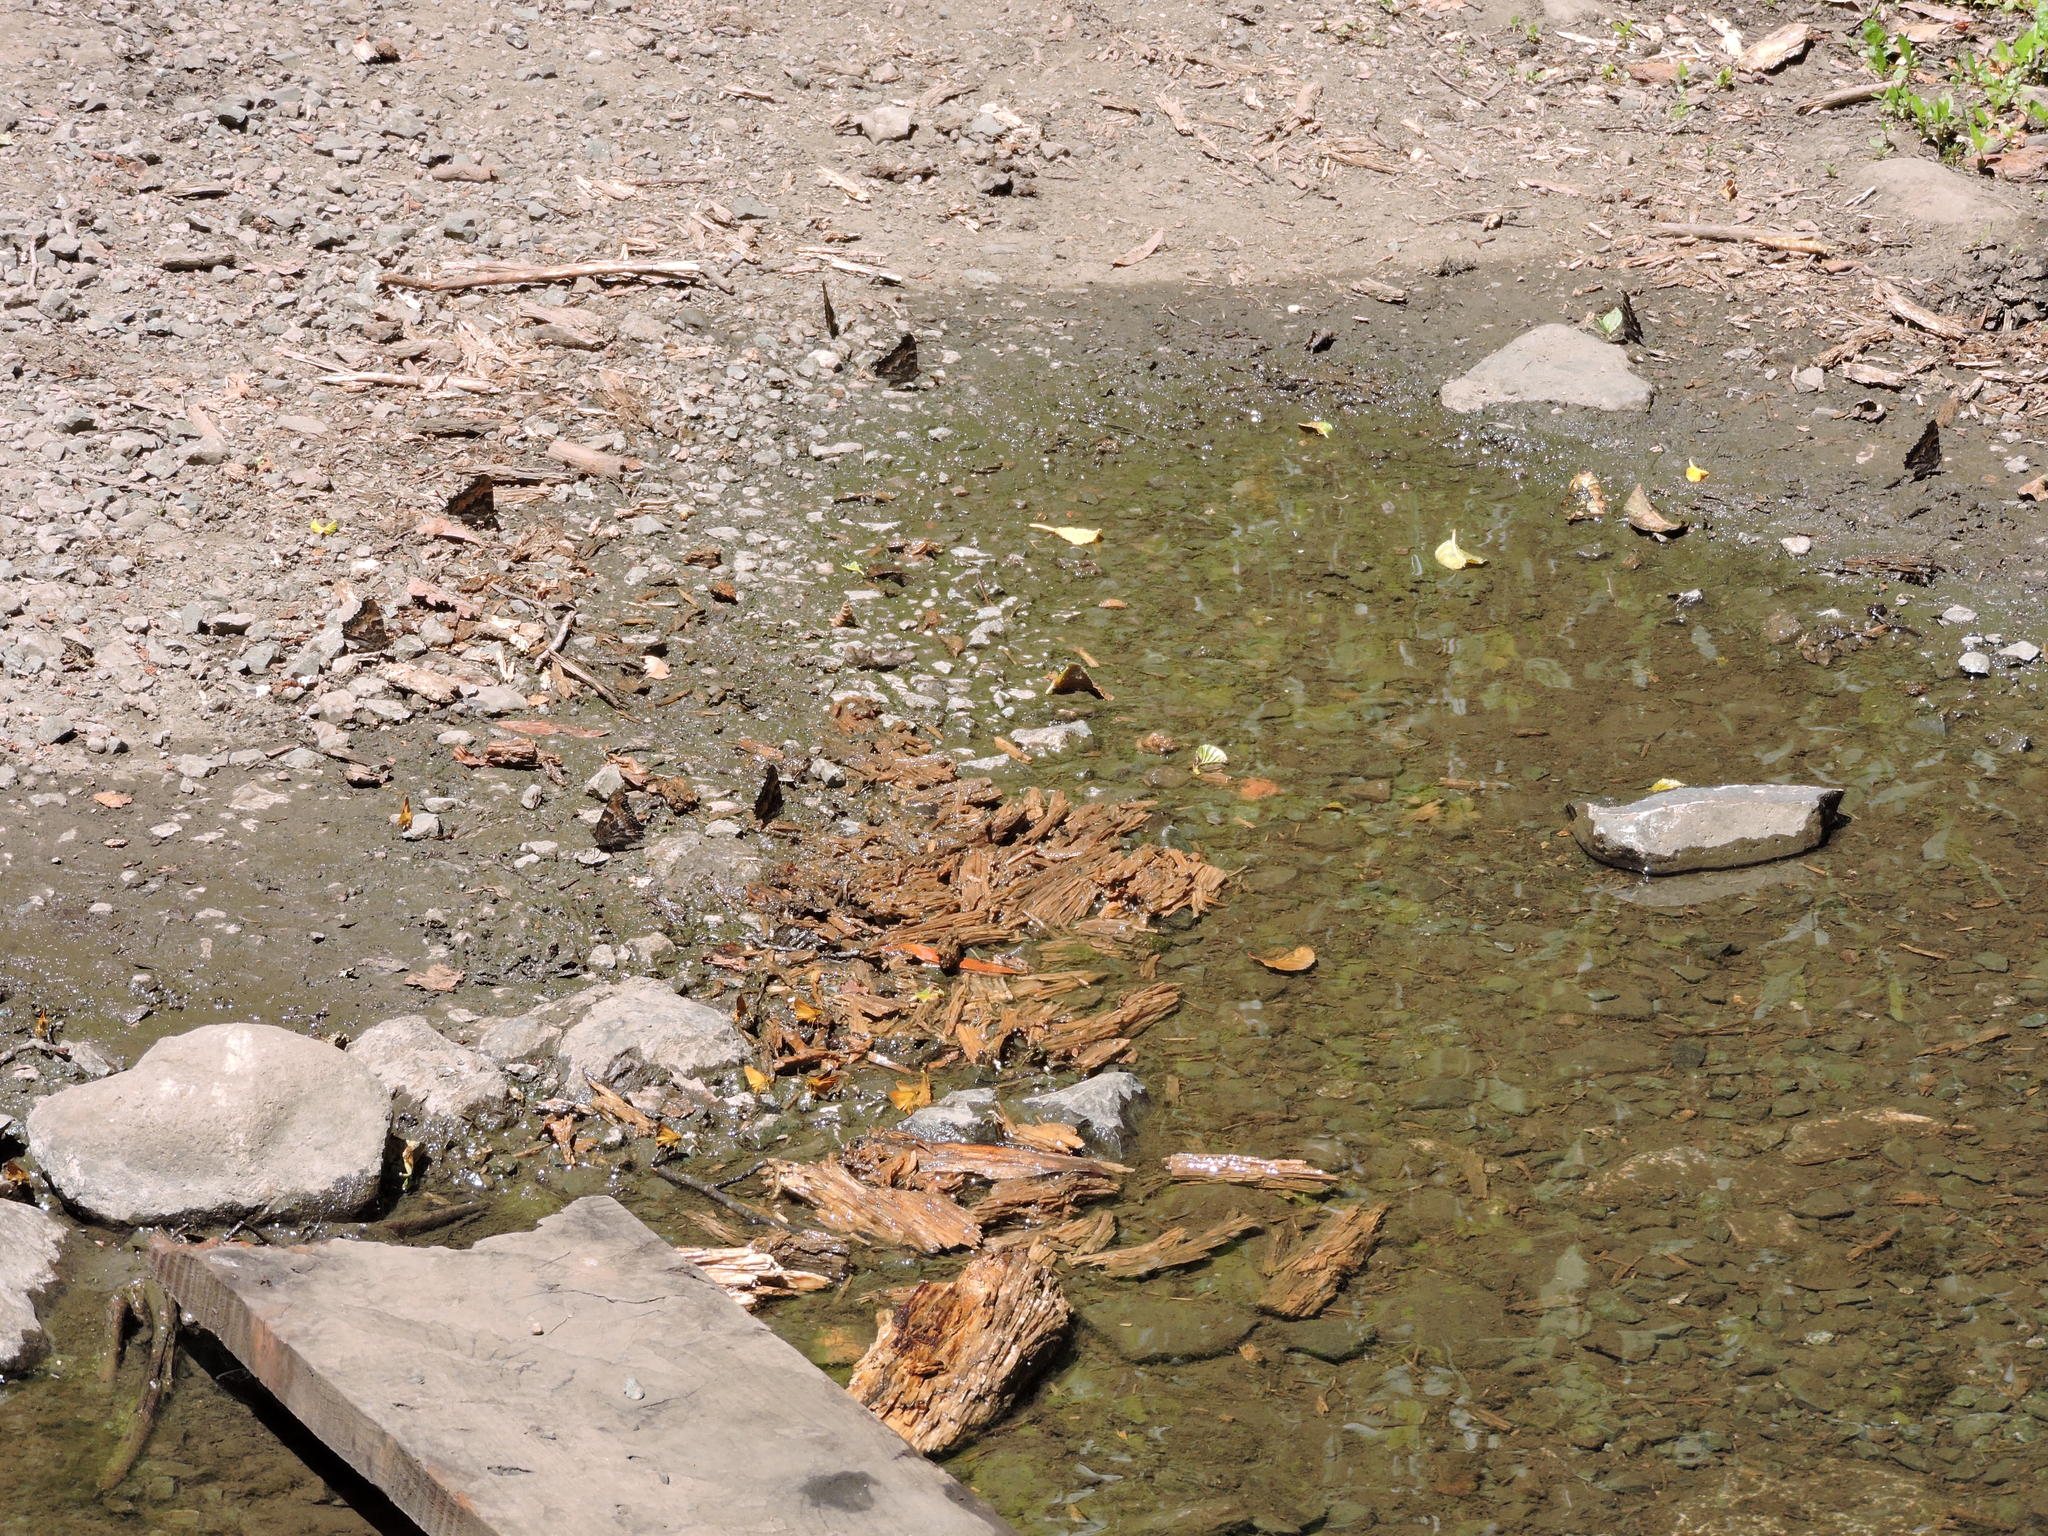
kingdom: Animalia
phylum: Arthropoda
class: Insecta
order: Lepidoptera
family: Nymphalidae
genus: Nymphalis
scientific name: Nymphalis californica
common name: California tortoiseshell
